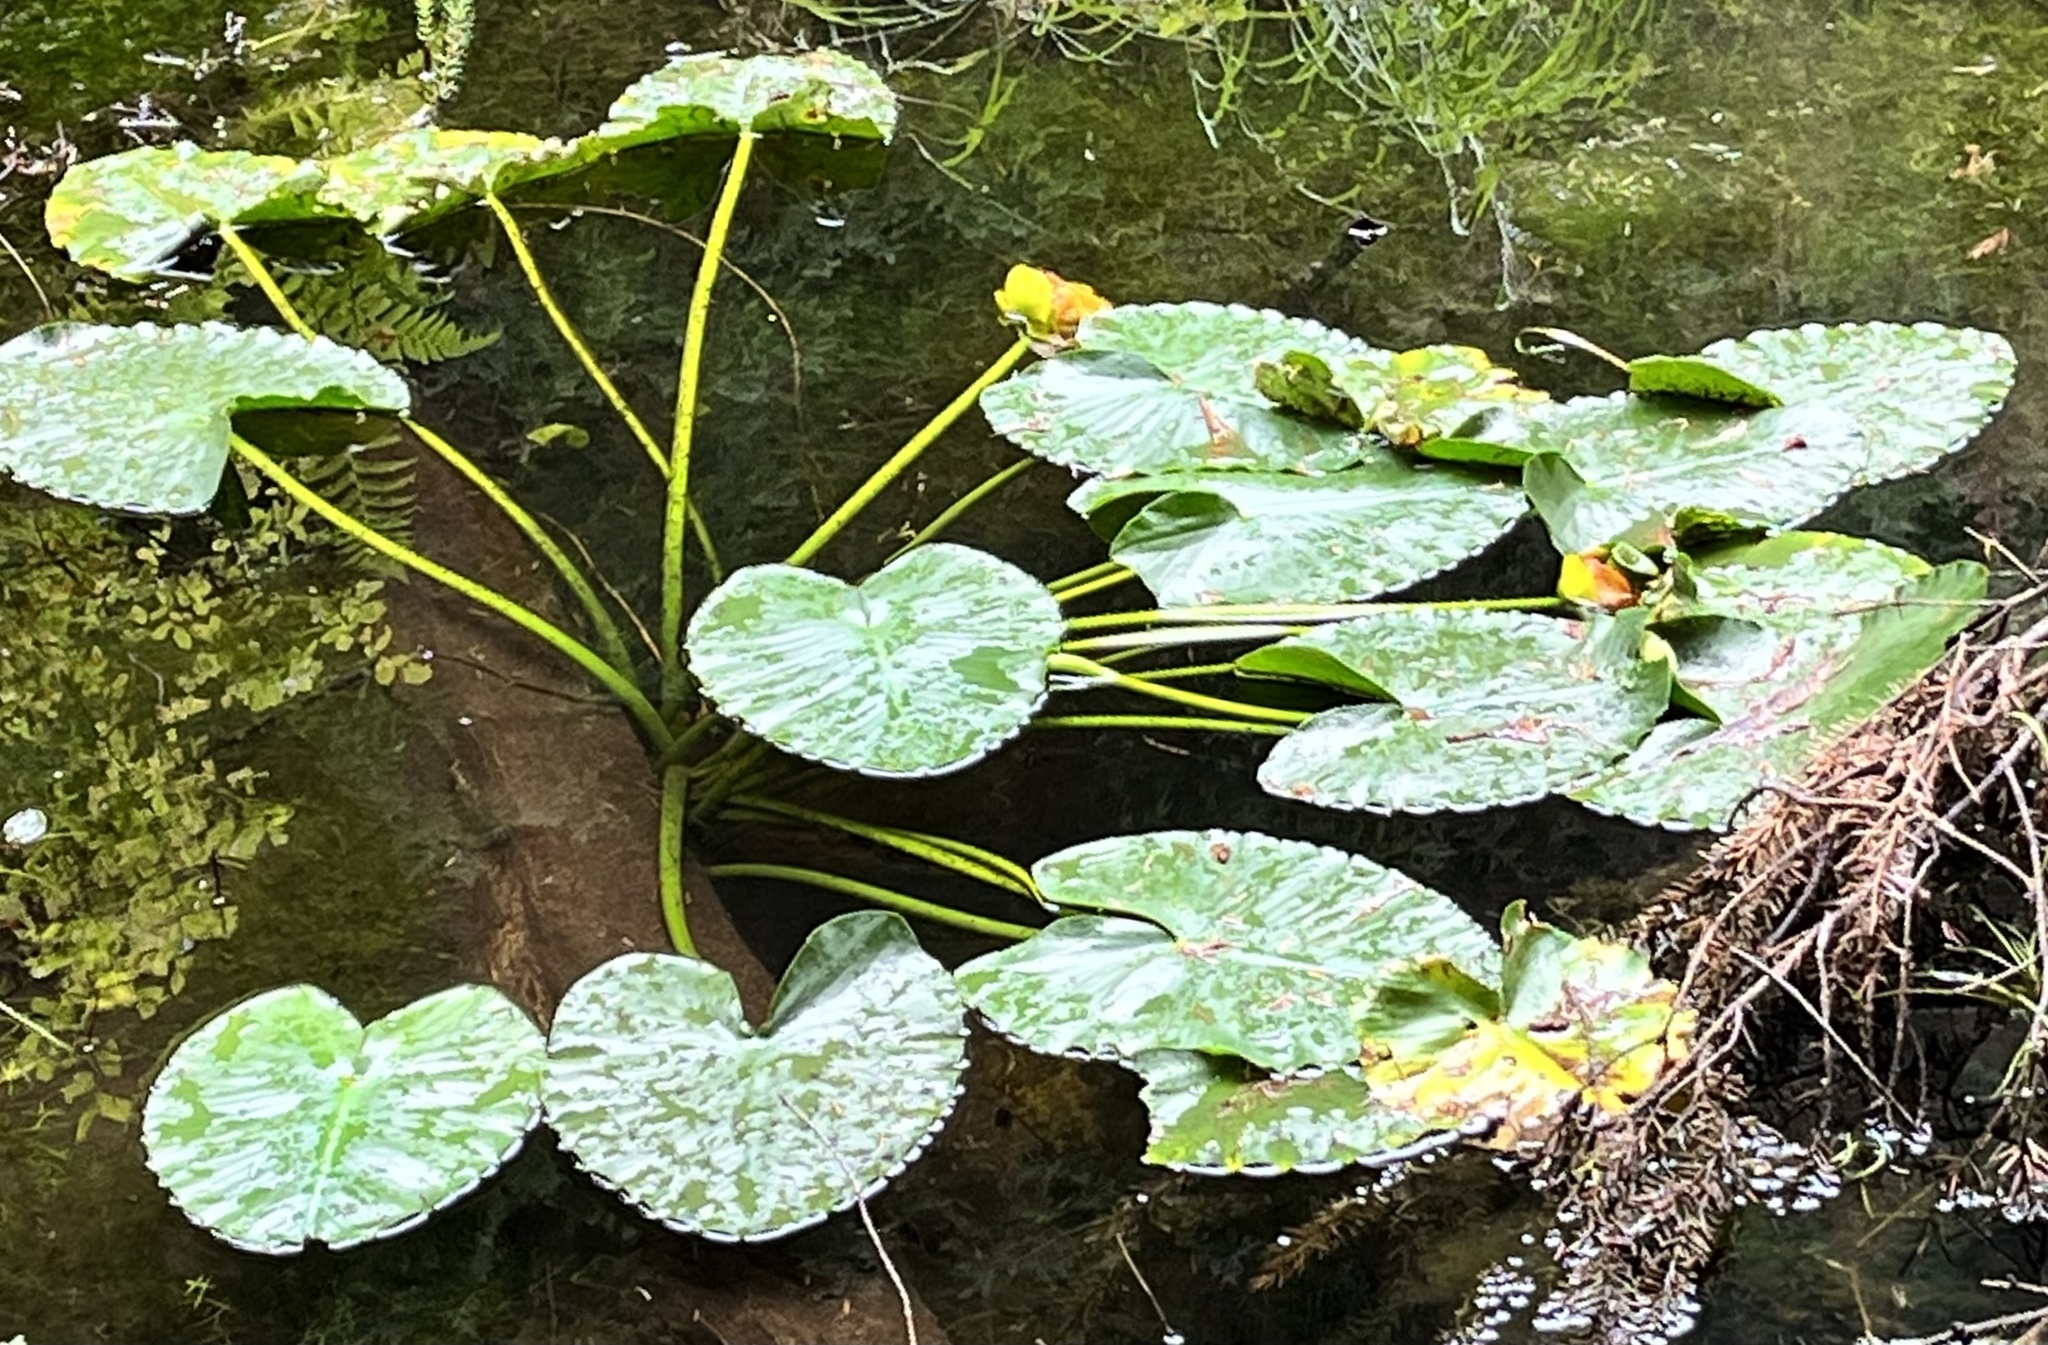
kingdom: Plantae
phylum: Tracheophyta
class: Magnoliopsida
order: Nymphaeales
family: Nymphaeaceae
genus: Nuphar
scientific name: Nuphar polysepala
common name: Rocky mountain cow-lily
